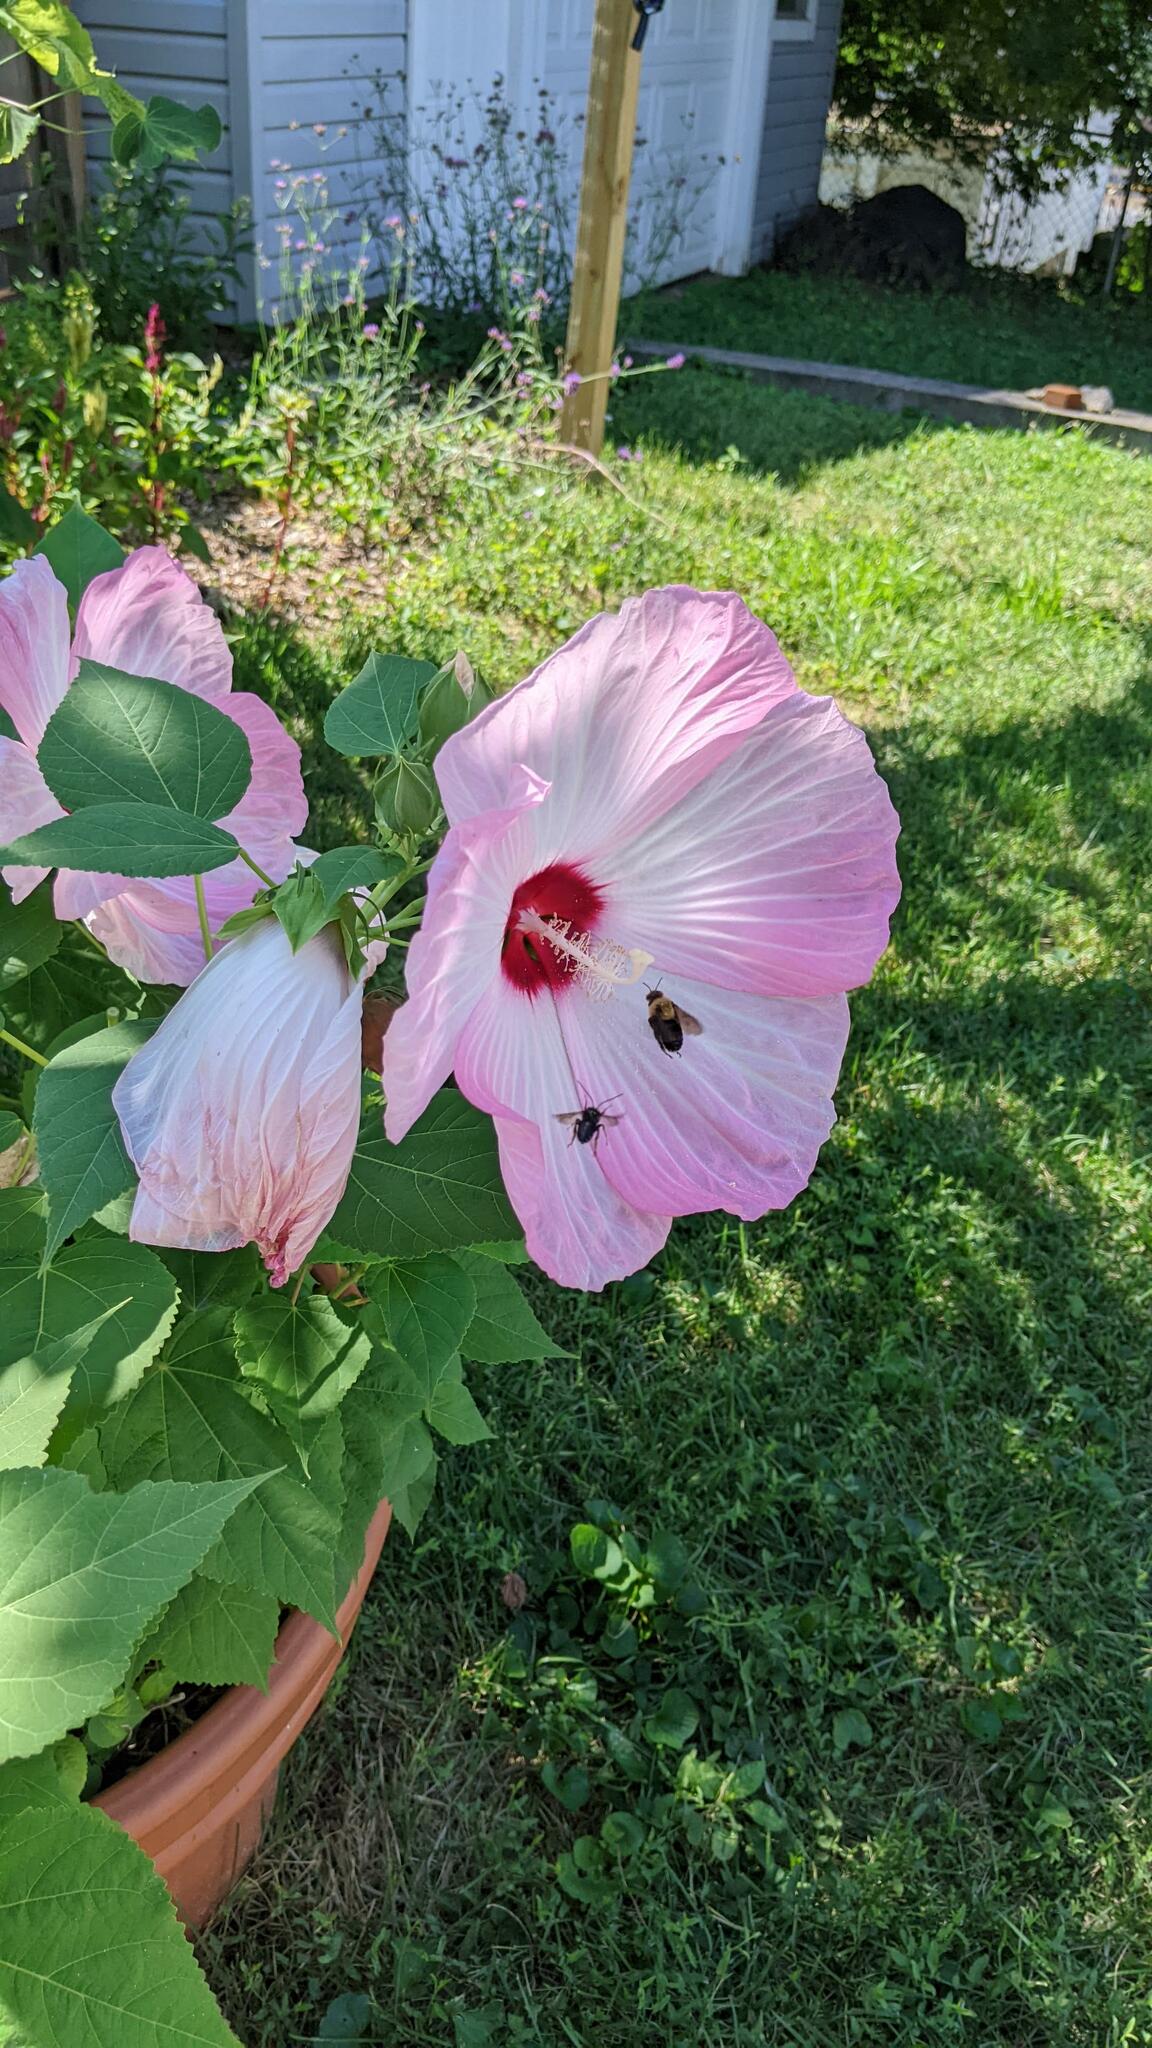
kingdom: Animalia
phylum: Arthropoda
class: Insecta
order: Hymenoptera
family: Apidae
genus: Melissodes
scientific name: Melissodes bimaculatus
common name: Two-spotted long-horned bee
